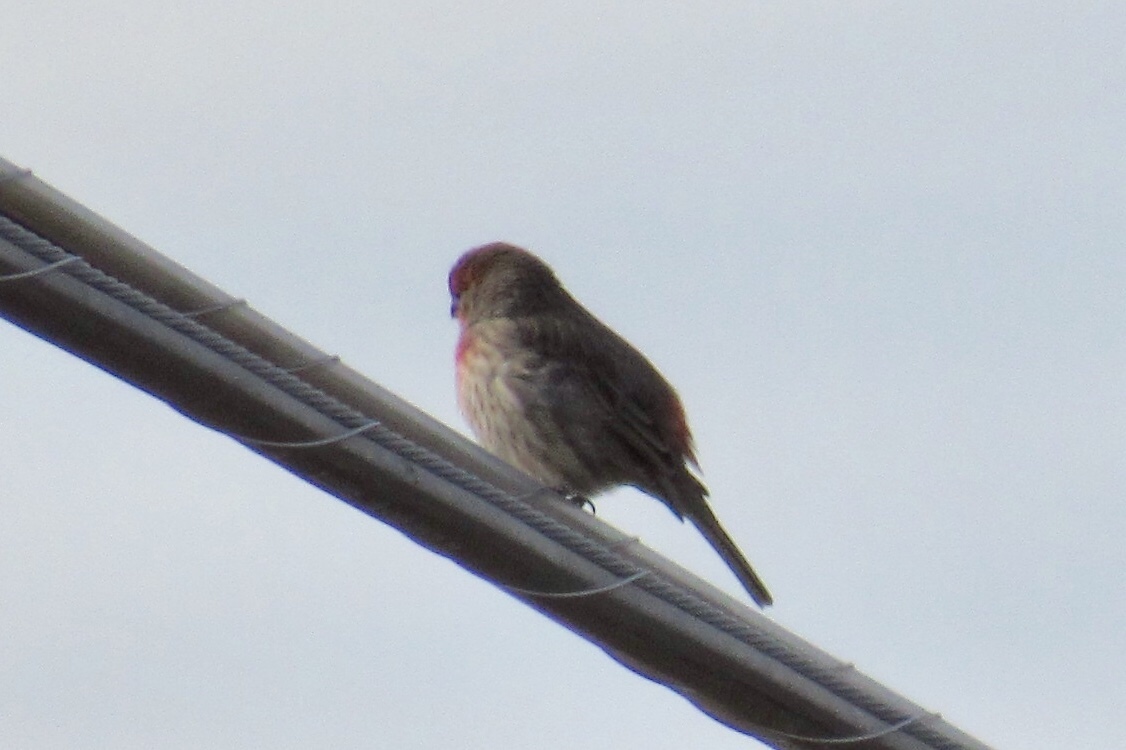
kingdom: Animalia
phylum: Chordata
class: Aves
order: Passeriformes
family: Fringillidae
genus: Haemorhous
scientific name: Haemorhous mexicanus
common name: House finch
